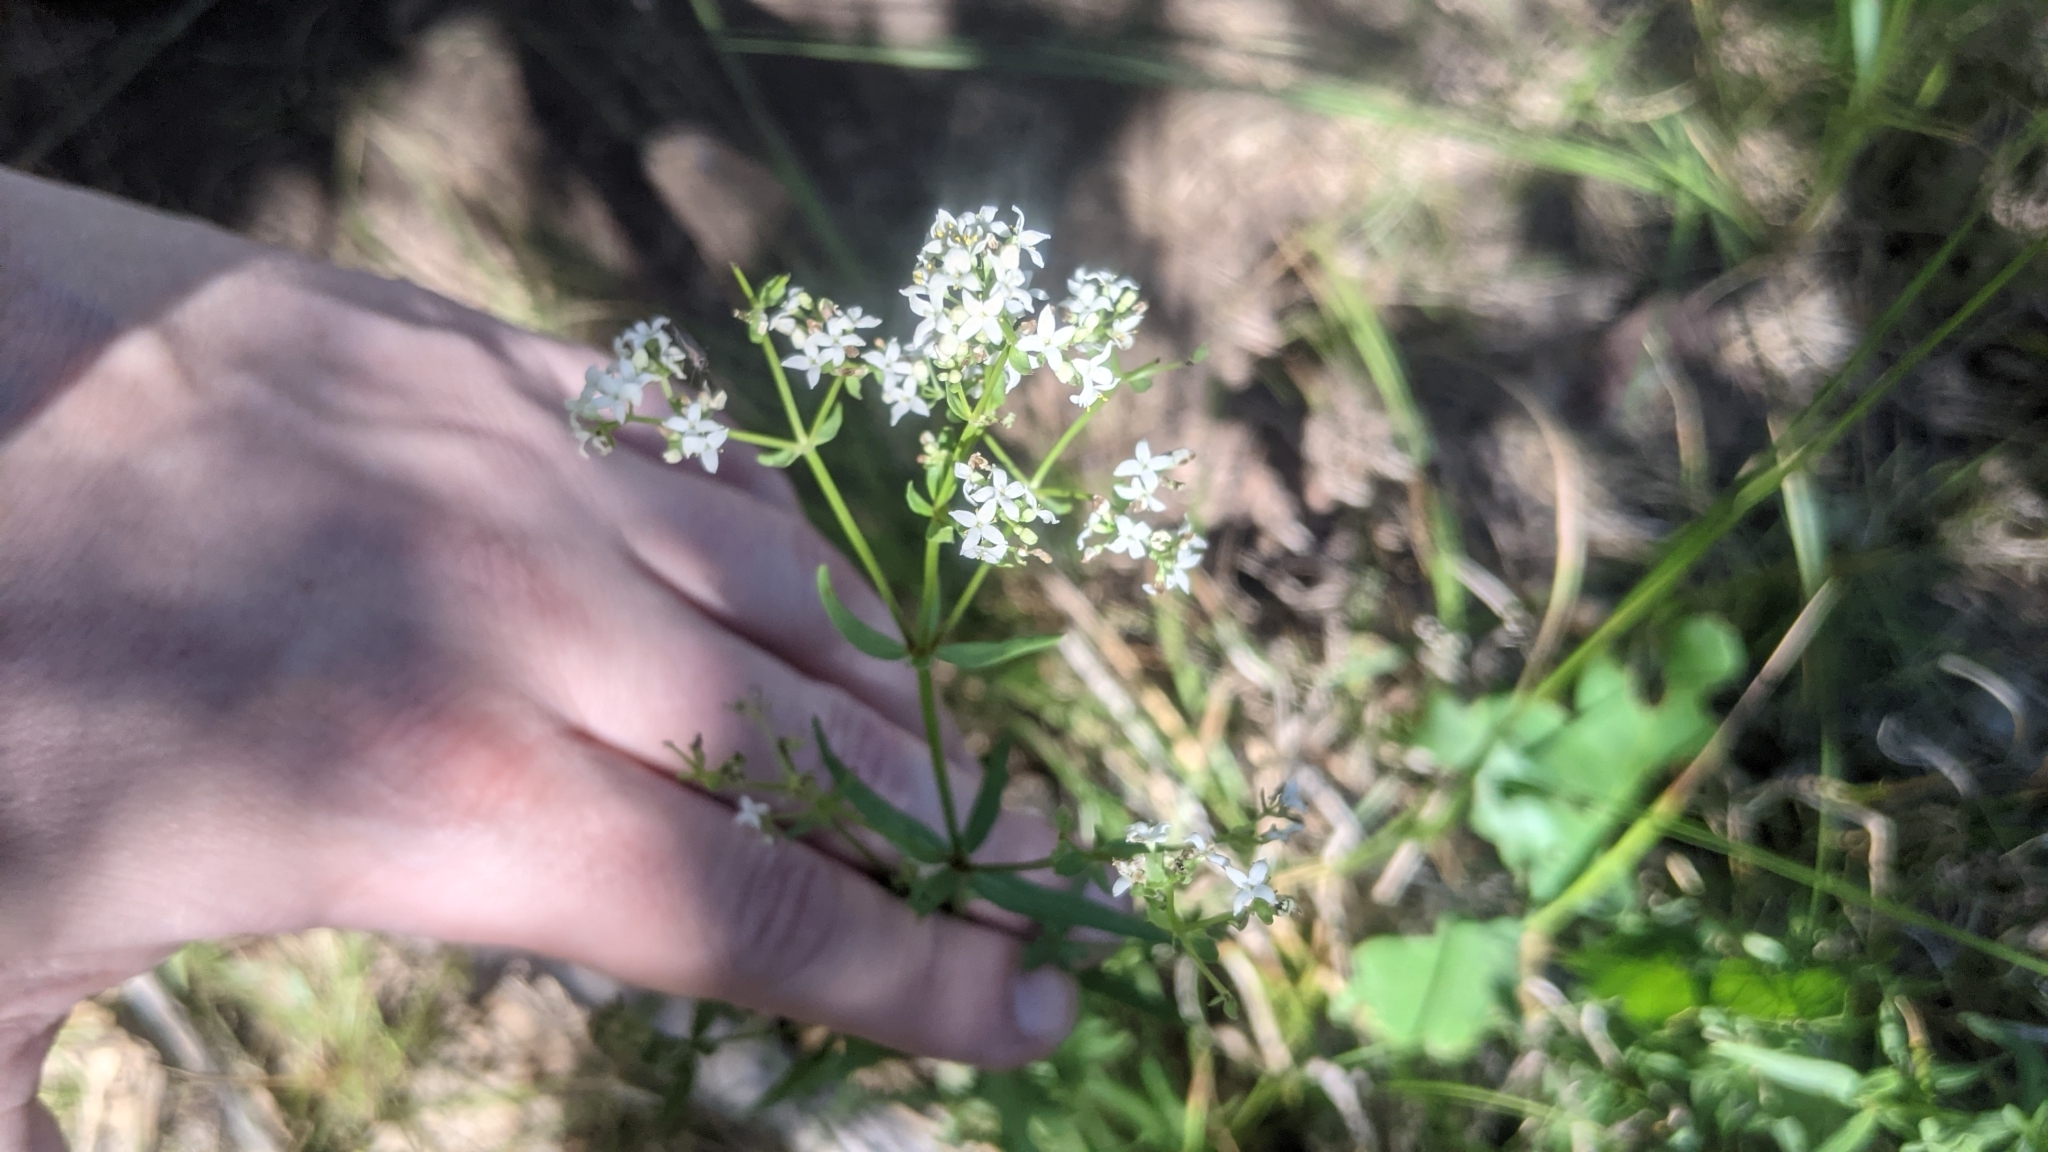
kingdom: Plantae
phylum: Tracheophyta
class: Magnoliopsida
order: Gentianales
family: Rubiaceae
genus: Galium
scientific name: Galium boreale
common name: Northern bedstraw
